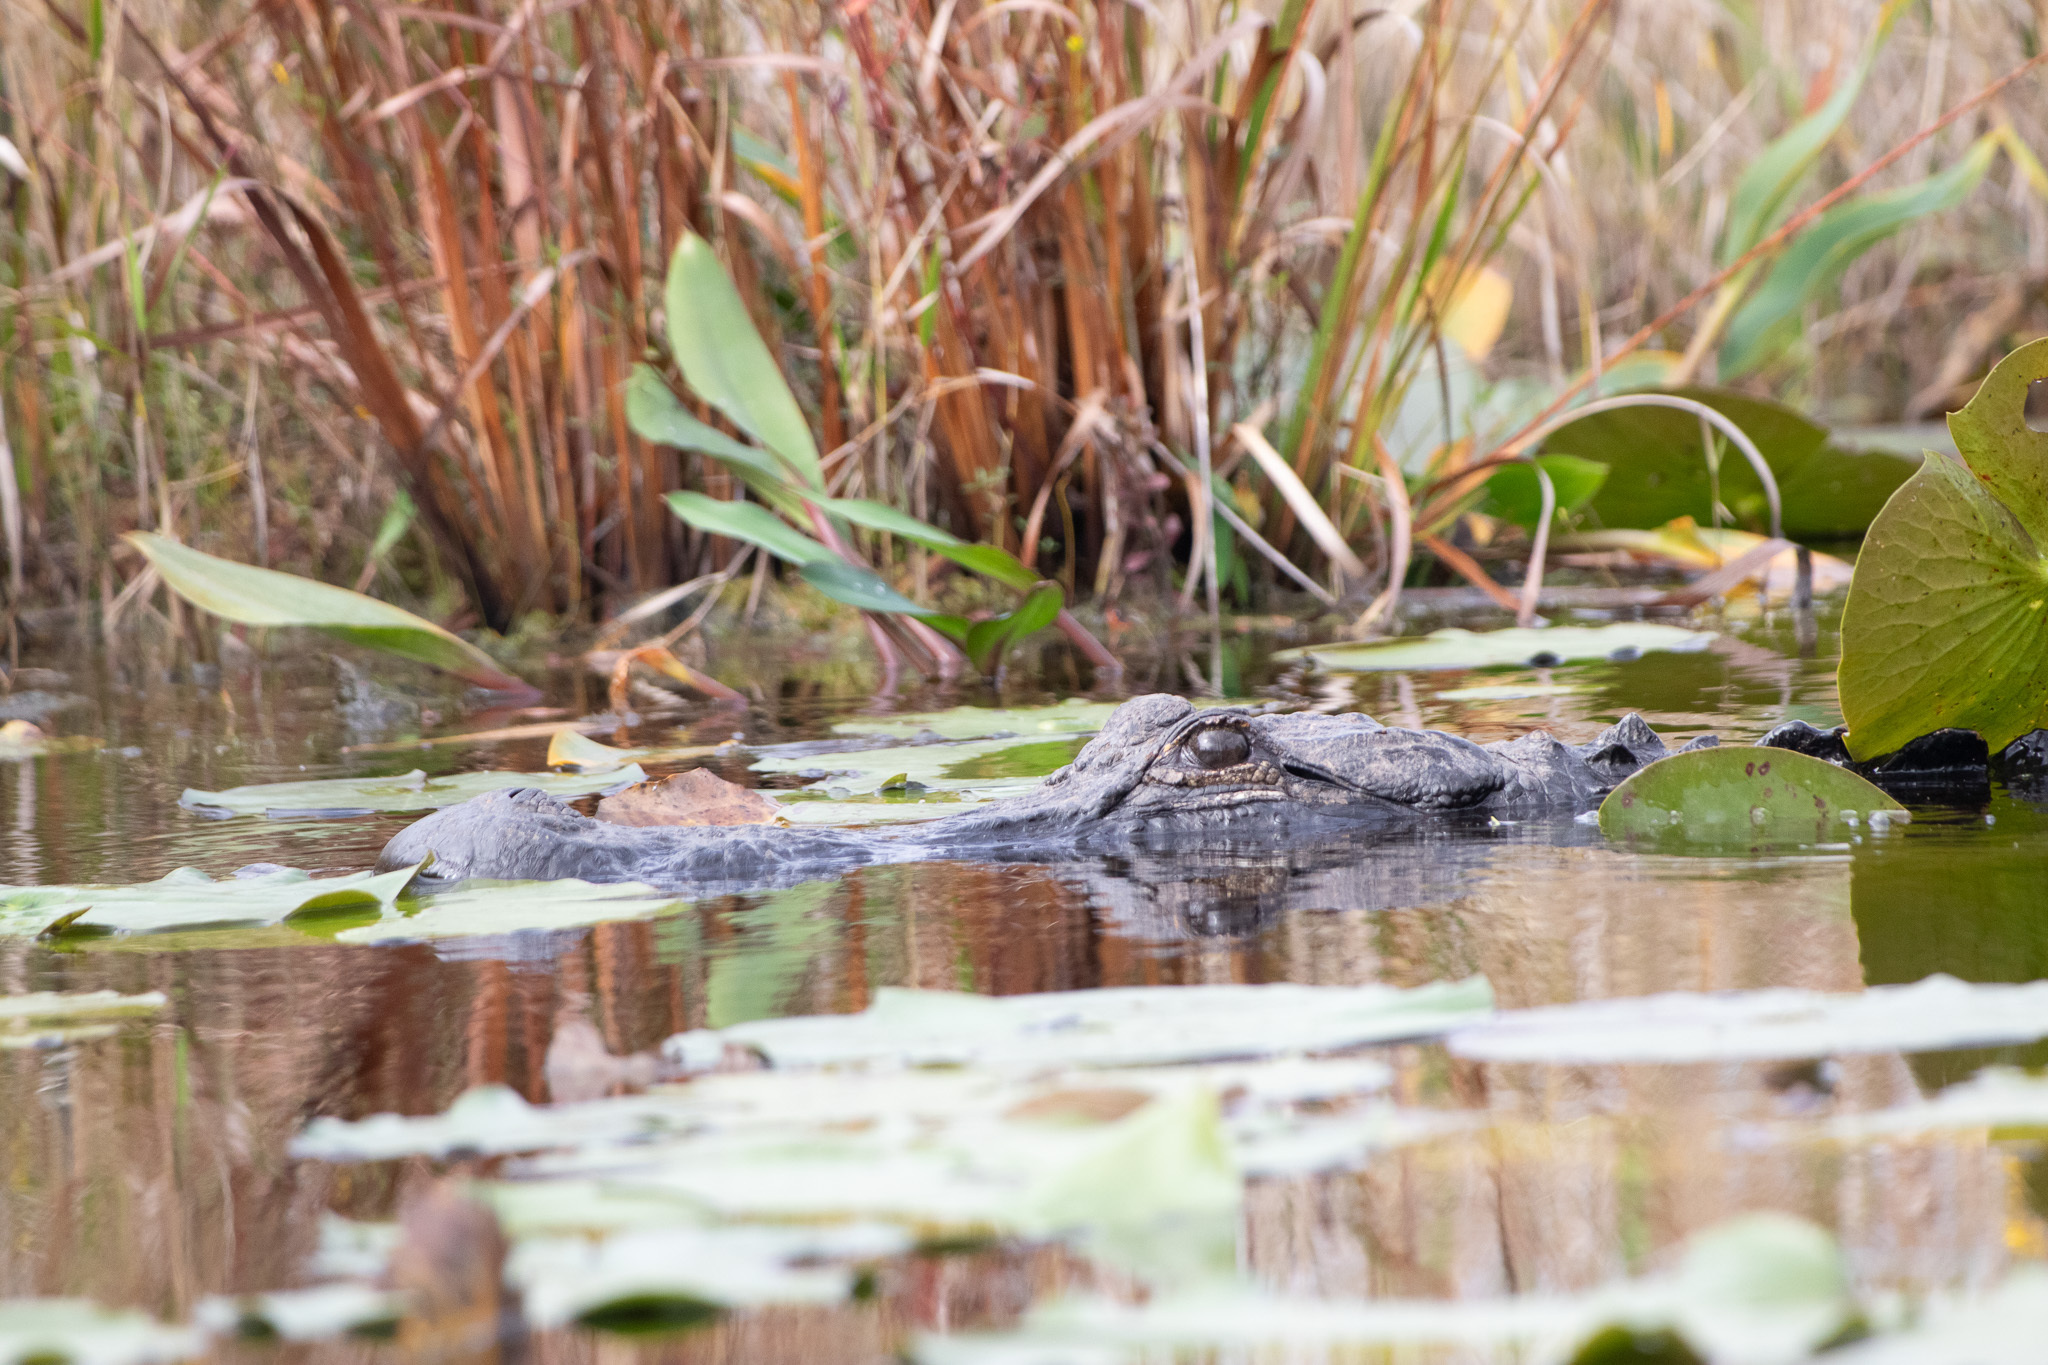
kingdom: Animalia
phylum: Chordata
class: Crocodylia
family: Alligatoridae
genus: Alligator
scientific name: Alligator mississippiensis
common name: American alligator
